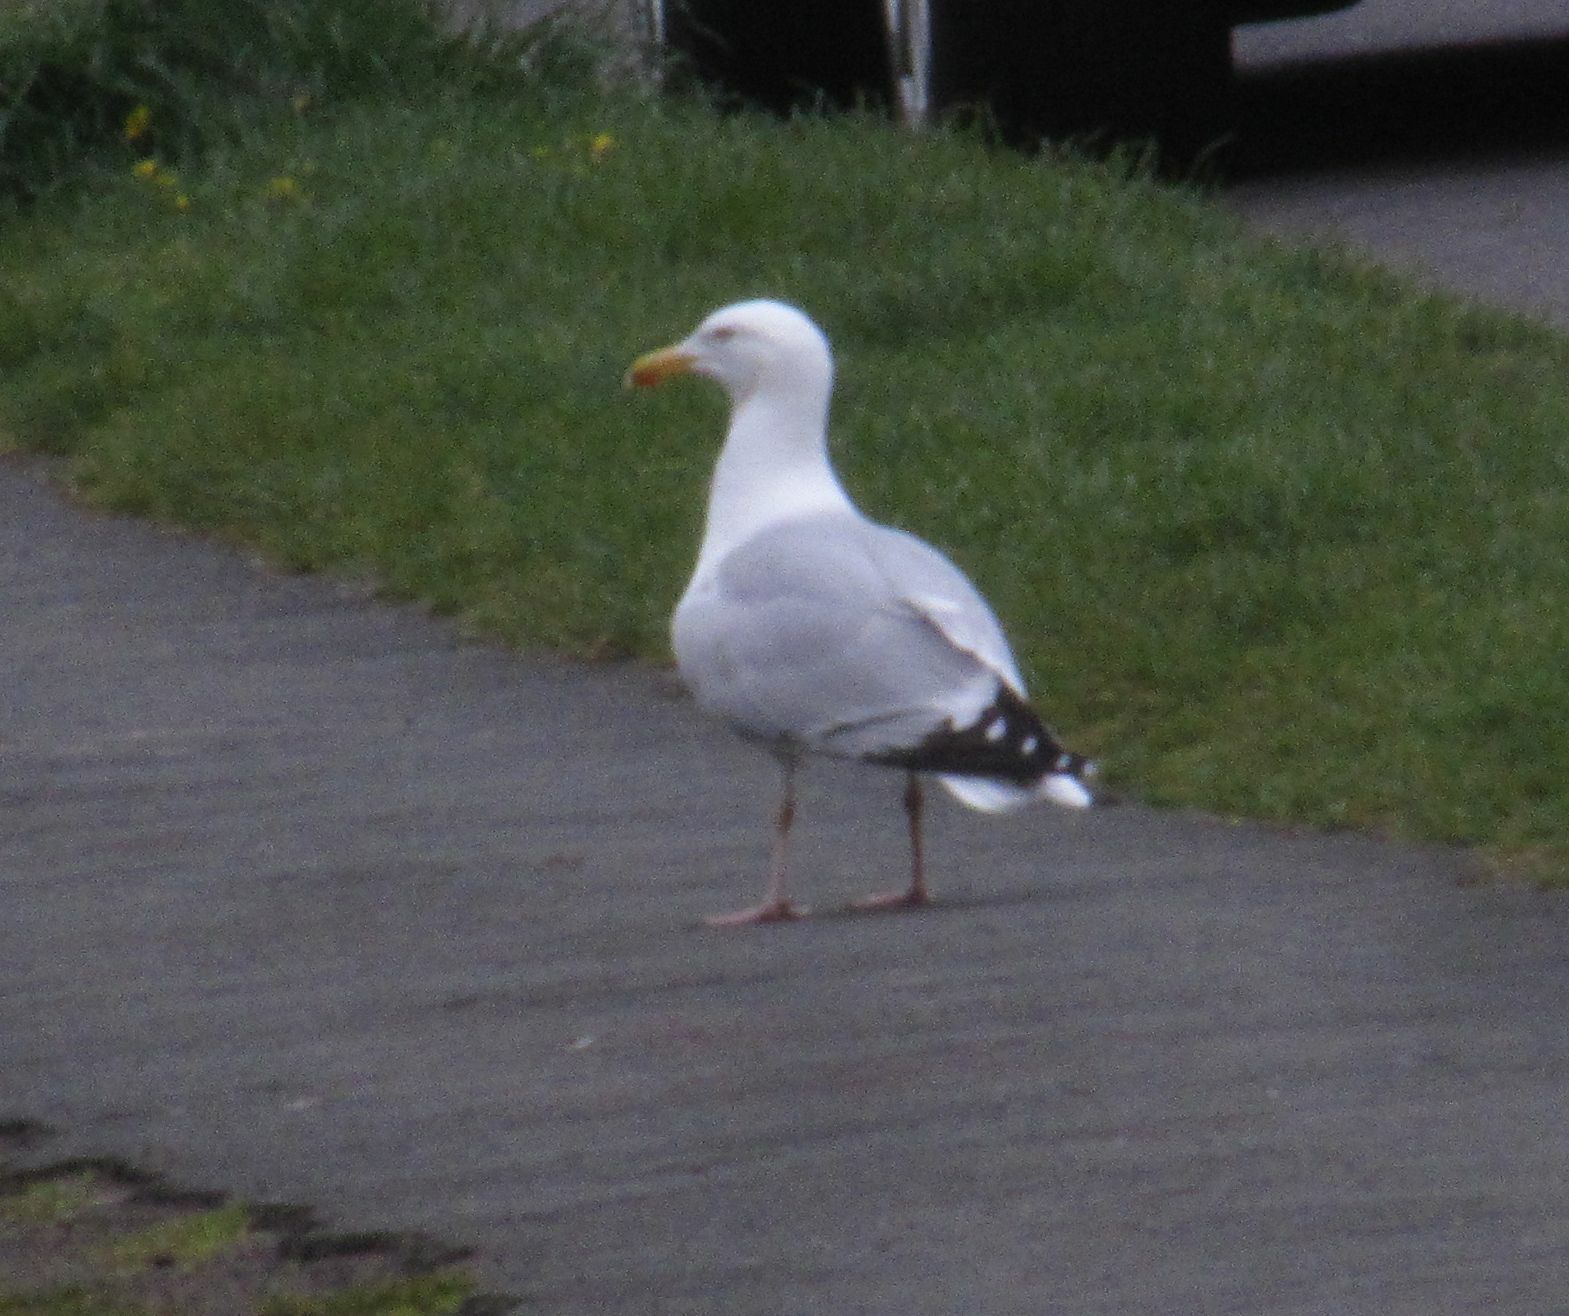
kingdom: Animalia
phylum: Chordata
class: Aves
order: Charadriiformes
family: Laridae
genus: Larus
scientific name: Larus argentatus
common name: Herring gull
